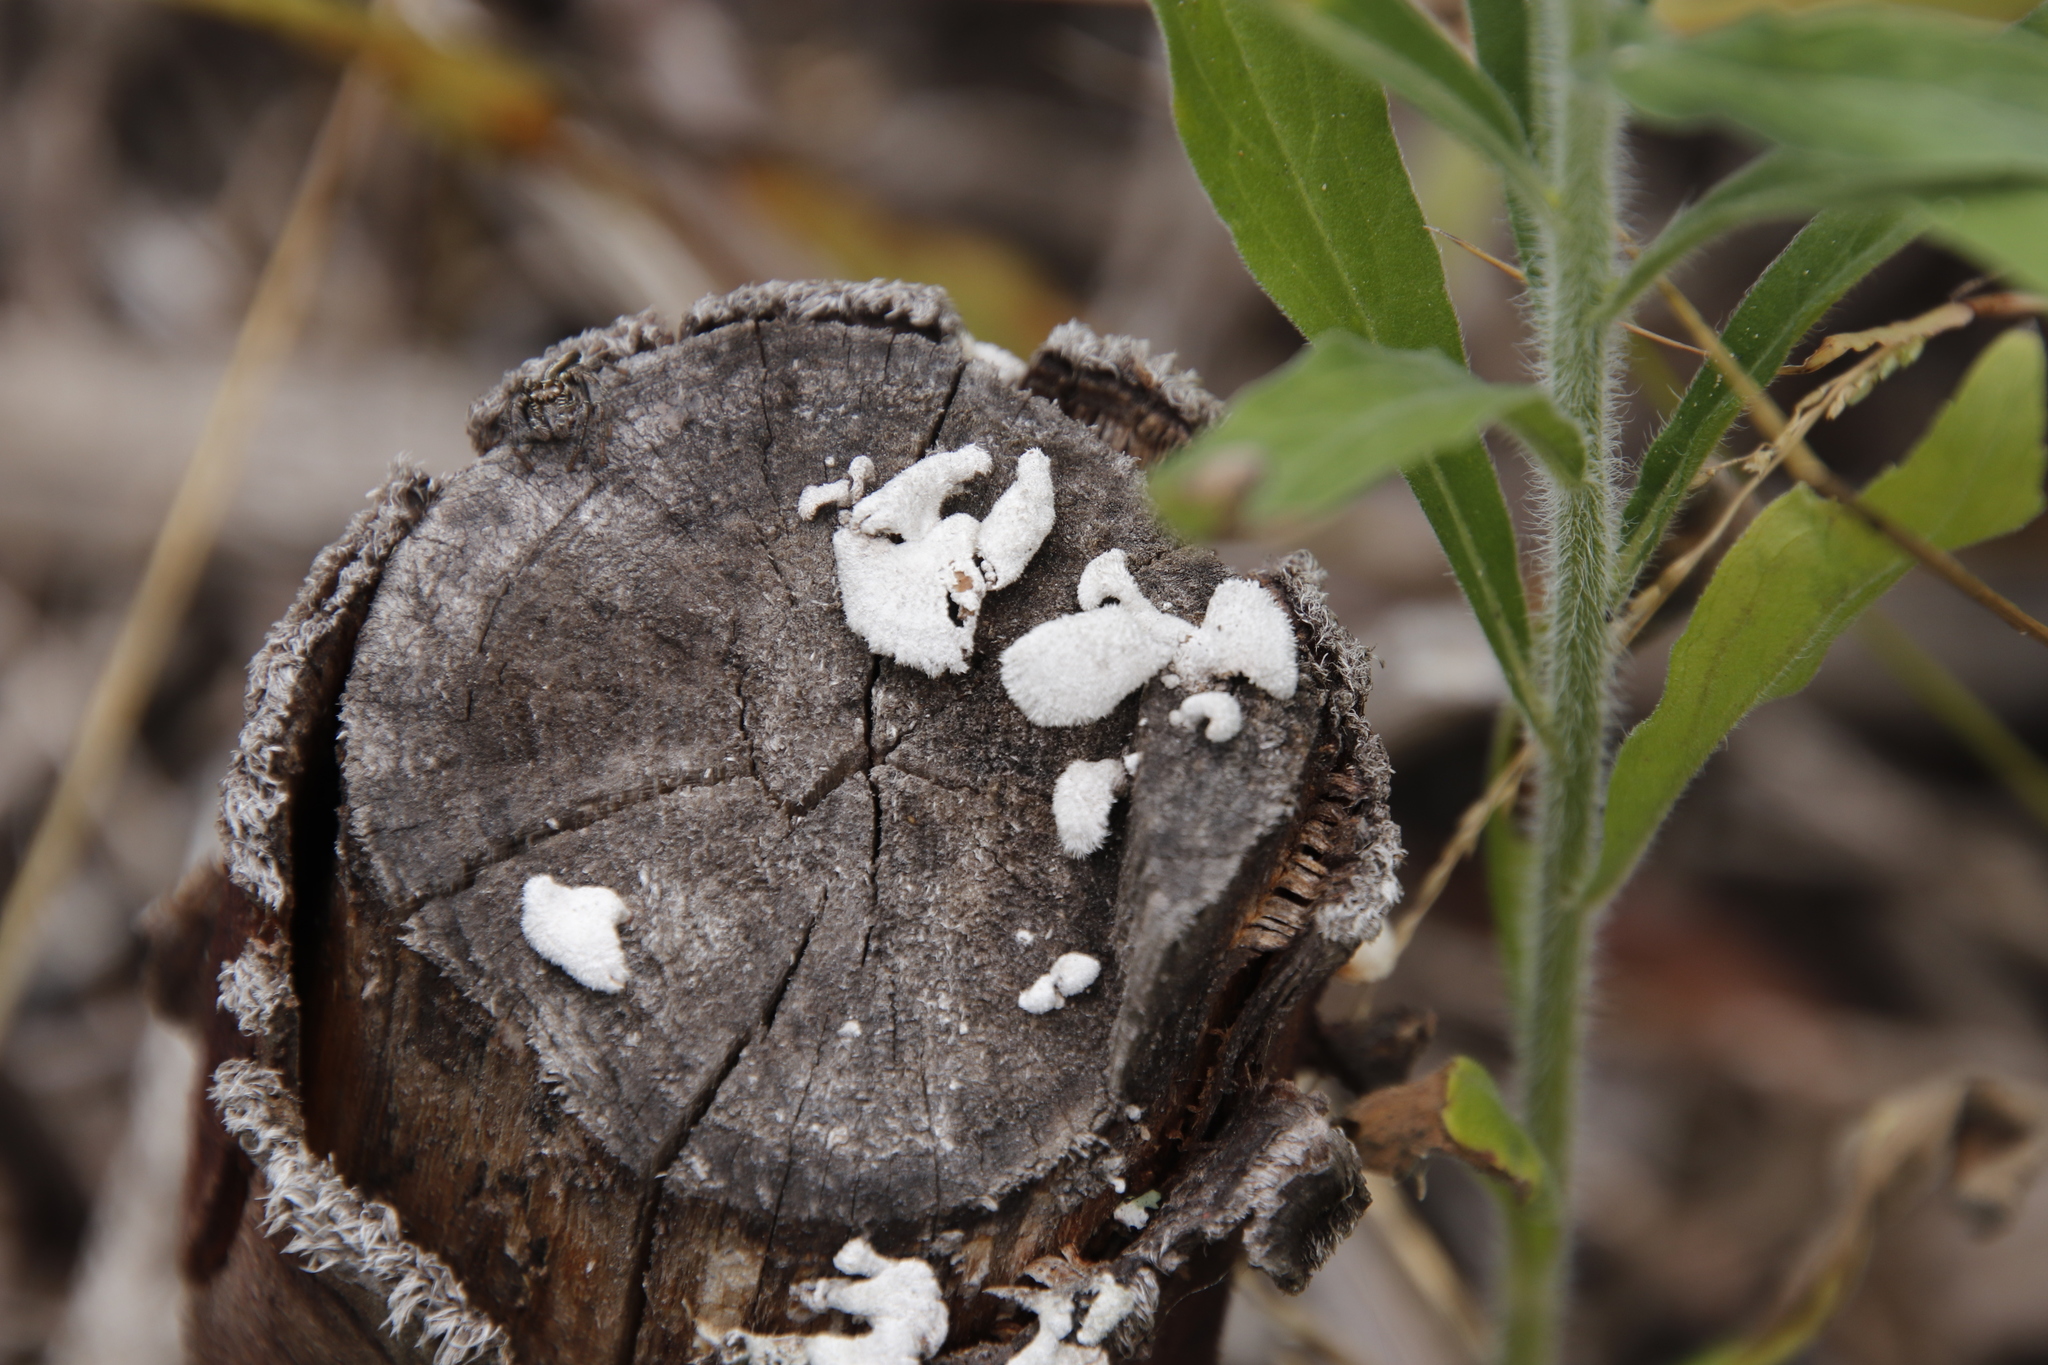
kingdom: Fungi
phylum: Basidiomycota
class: Agaricomycetes
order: Agaricales
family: Schizophyllaceae
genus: Schizophyllum
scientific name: Schizophyllum commune
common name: Common porecrust
